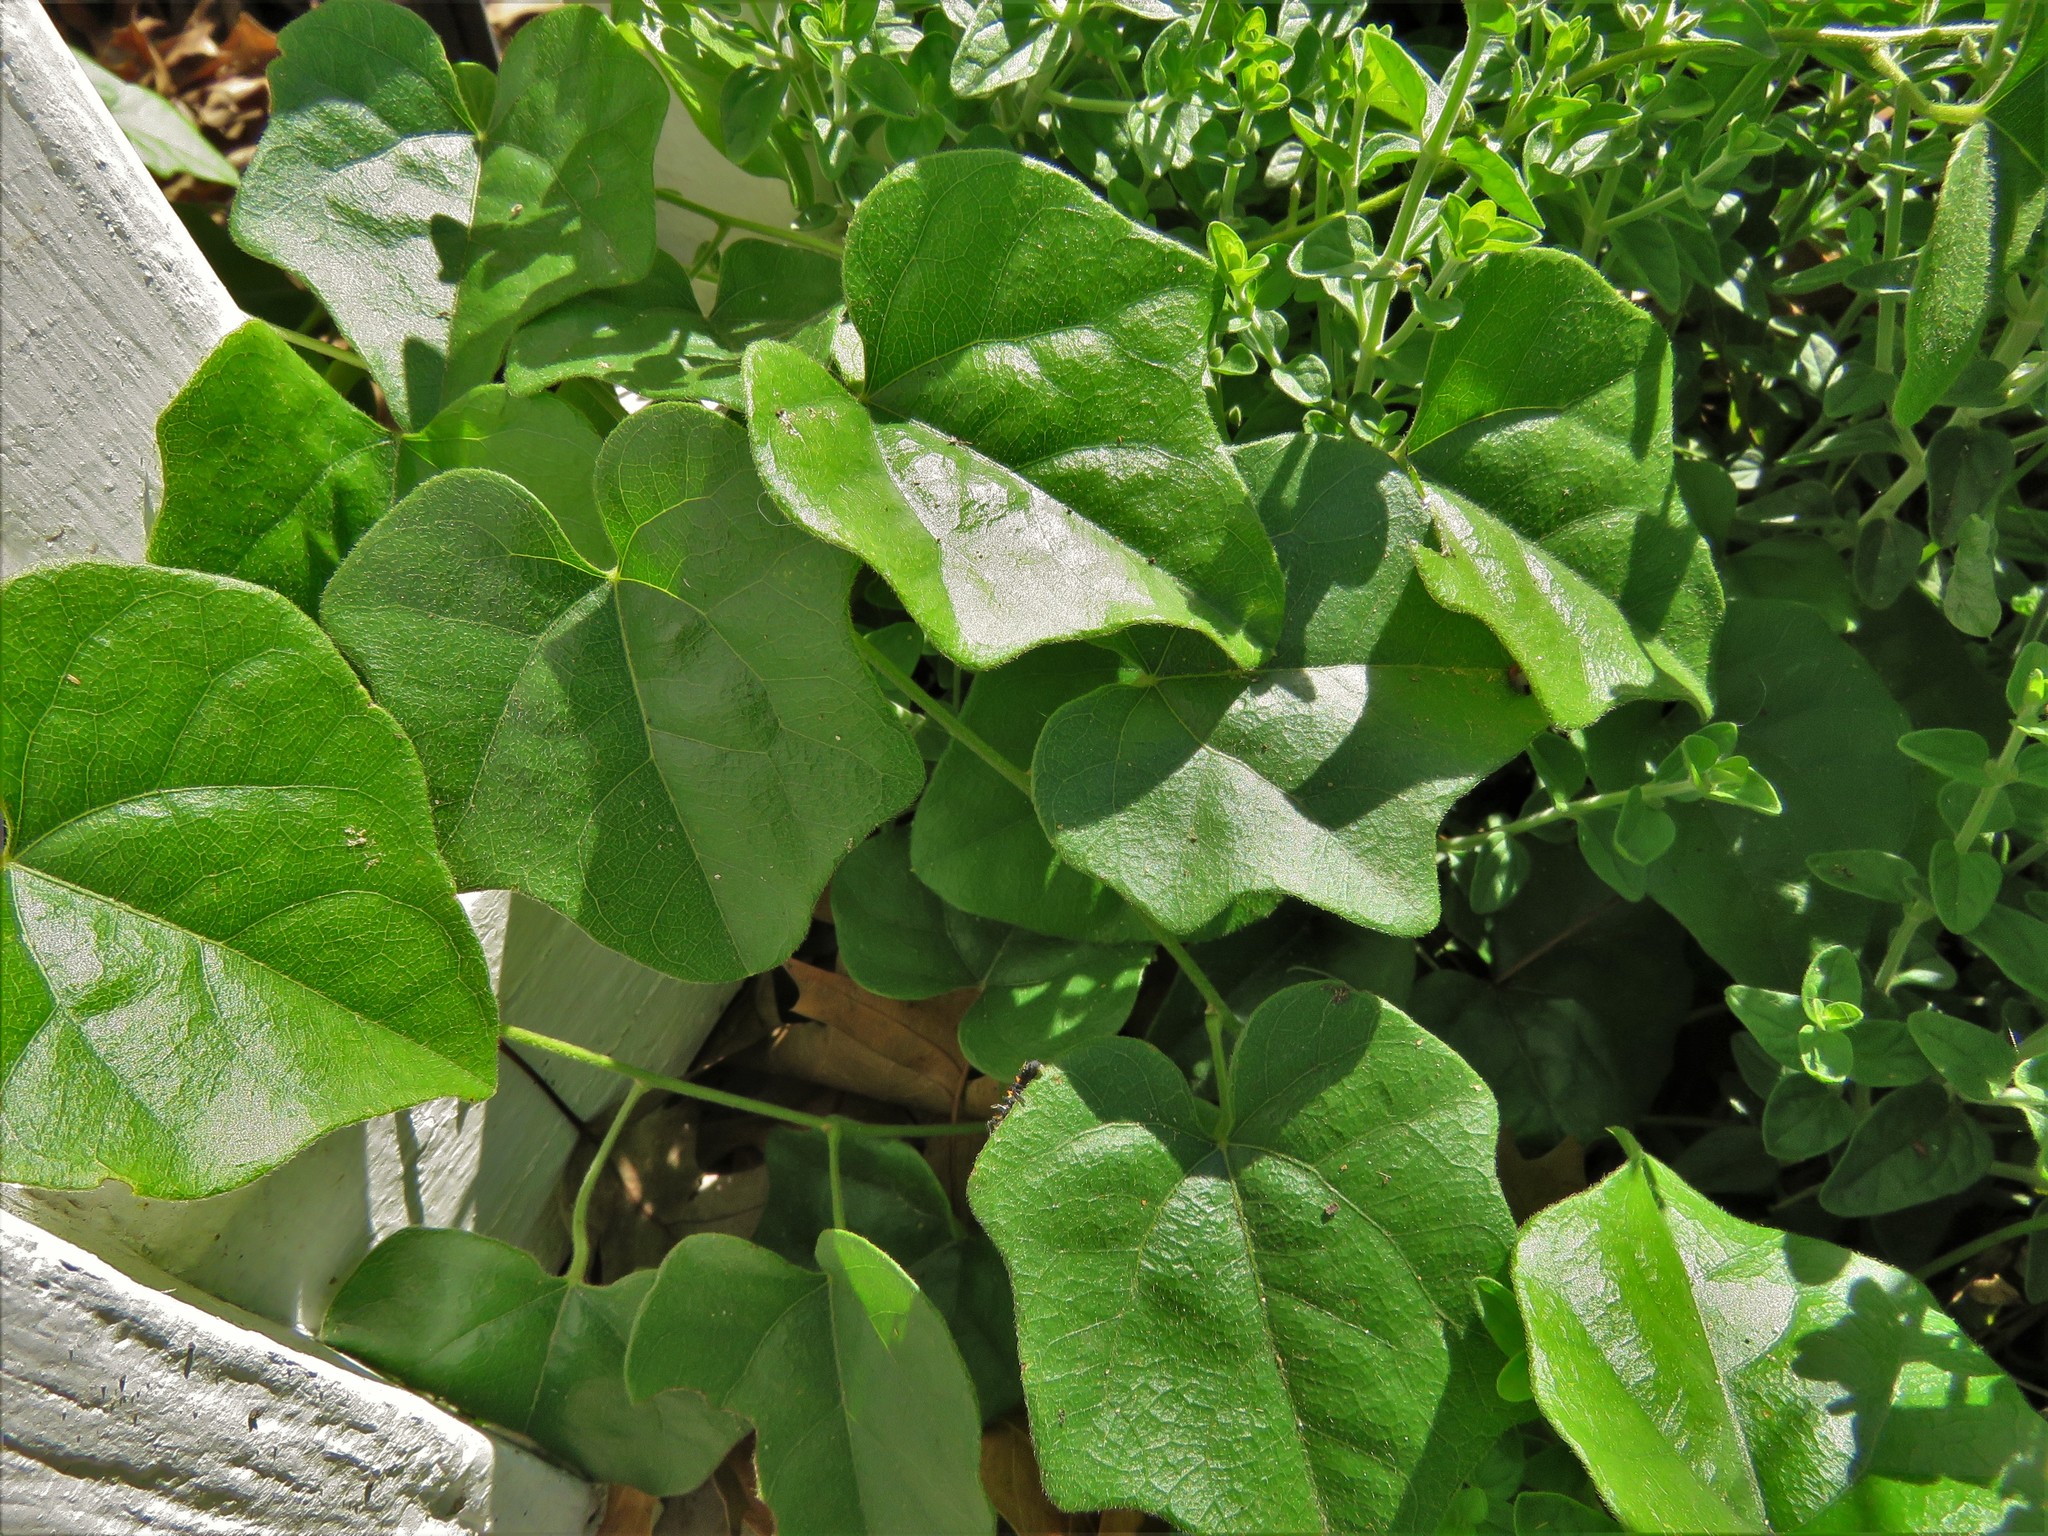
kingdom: Plantae
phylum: Tracheophyta
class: Magnoliopsida
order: Ranunculales
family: Menispermaceae
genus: Cocculus
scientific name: Cocculus carolinus
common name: Carolina moonseed
